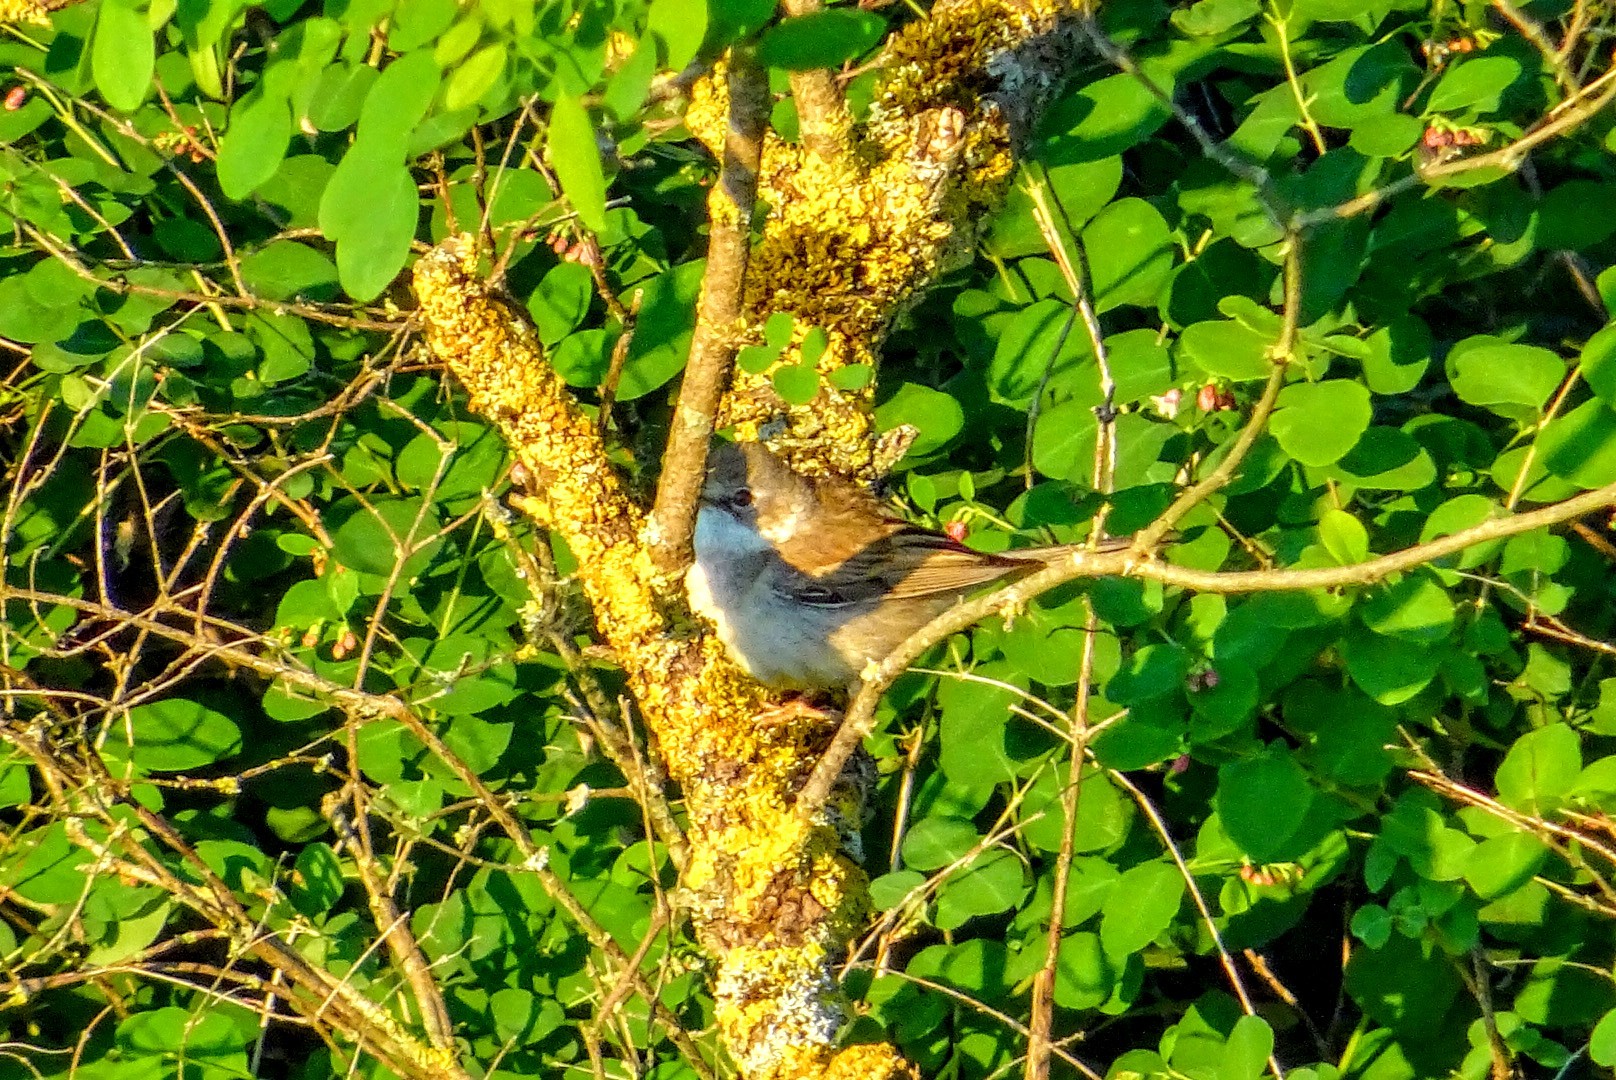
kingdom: Animalia
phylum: Chordata
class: Aves
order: Passeriformes
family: Sylviidae
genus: Sylvia
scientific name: Sylvia communis
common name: Common whitethroat
